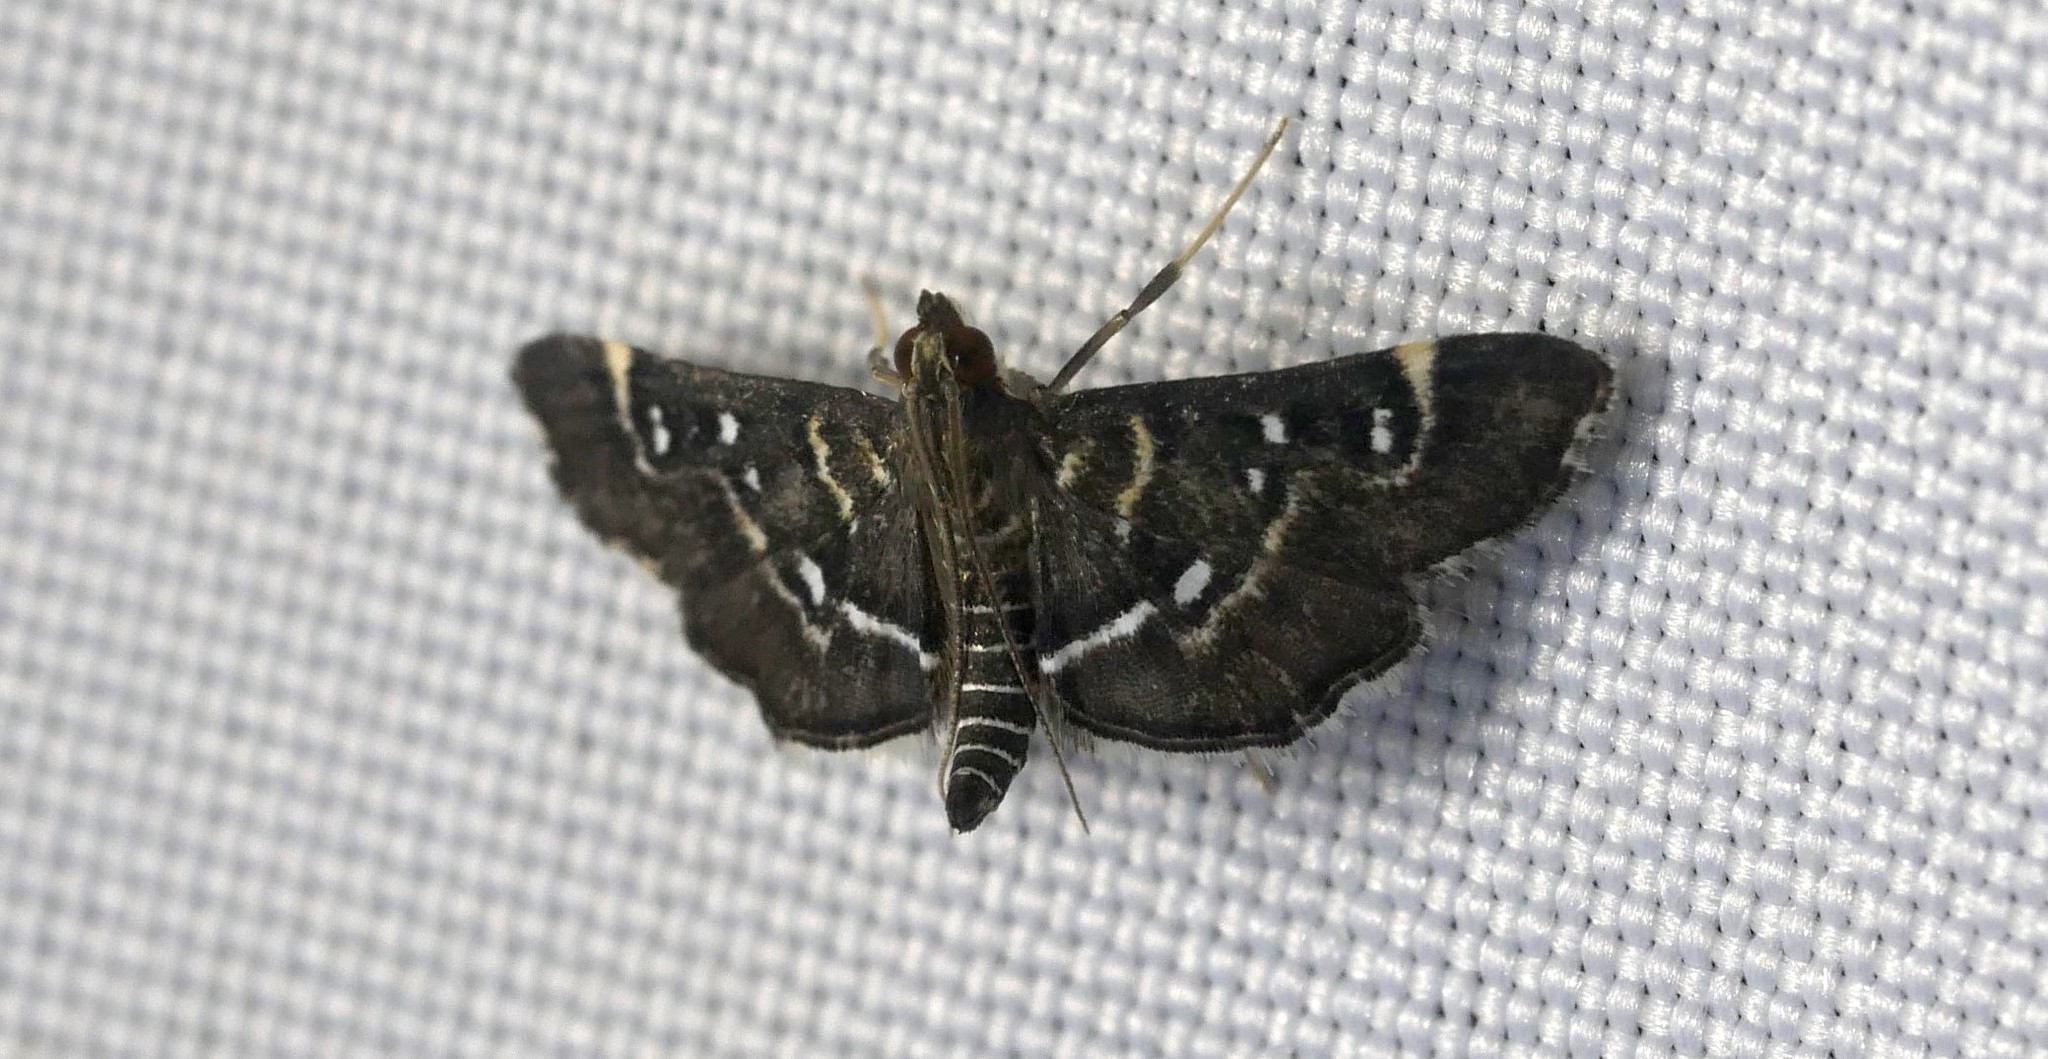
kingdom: Animalia
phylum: Arthropoda
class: Insecta
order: Lepidoptera
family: Crambidae
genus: Diathrausta
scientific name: Diathrausta harlequinalis
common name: Harlequin webworm moth
